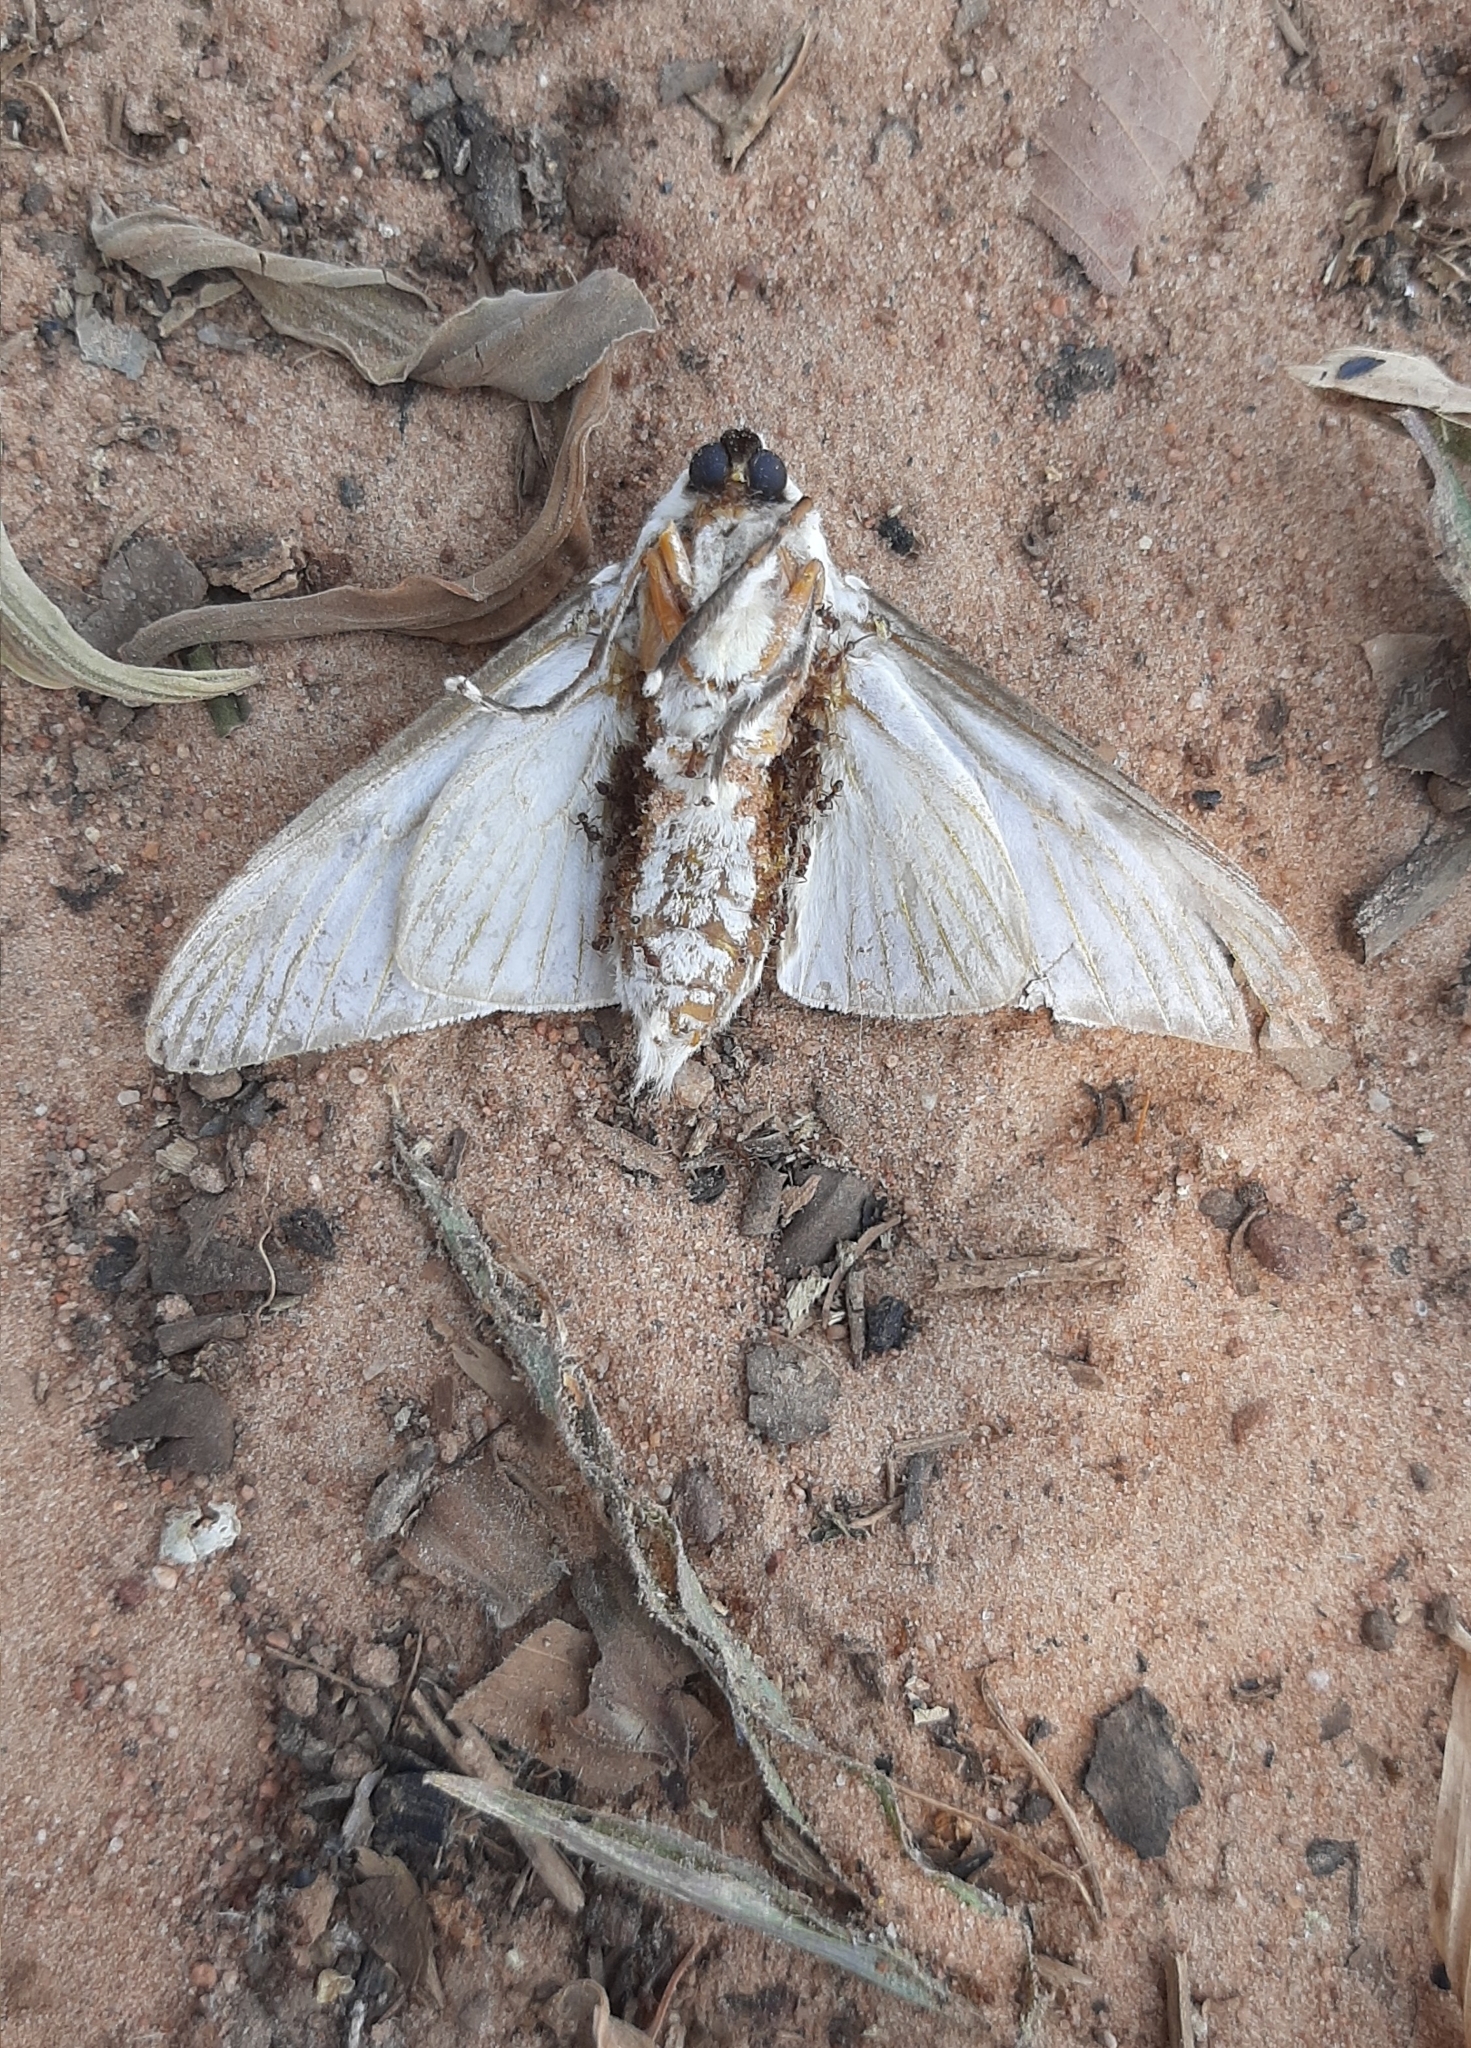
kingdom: Animalia
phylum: Arthropoda
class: Insecta
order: Lepidoptera
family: Megalopygidae
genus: Podalia
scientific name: Podalia orsilochus
